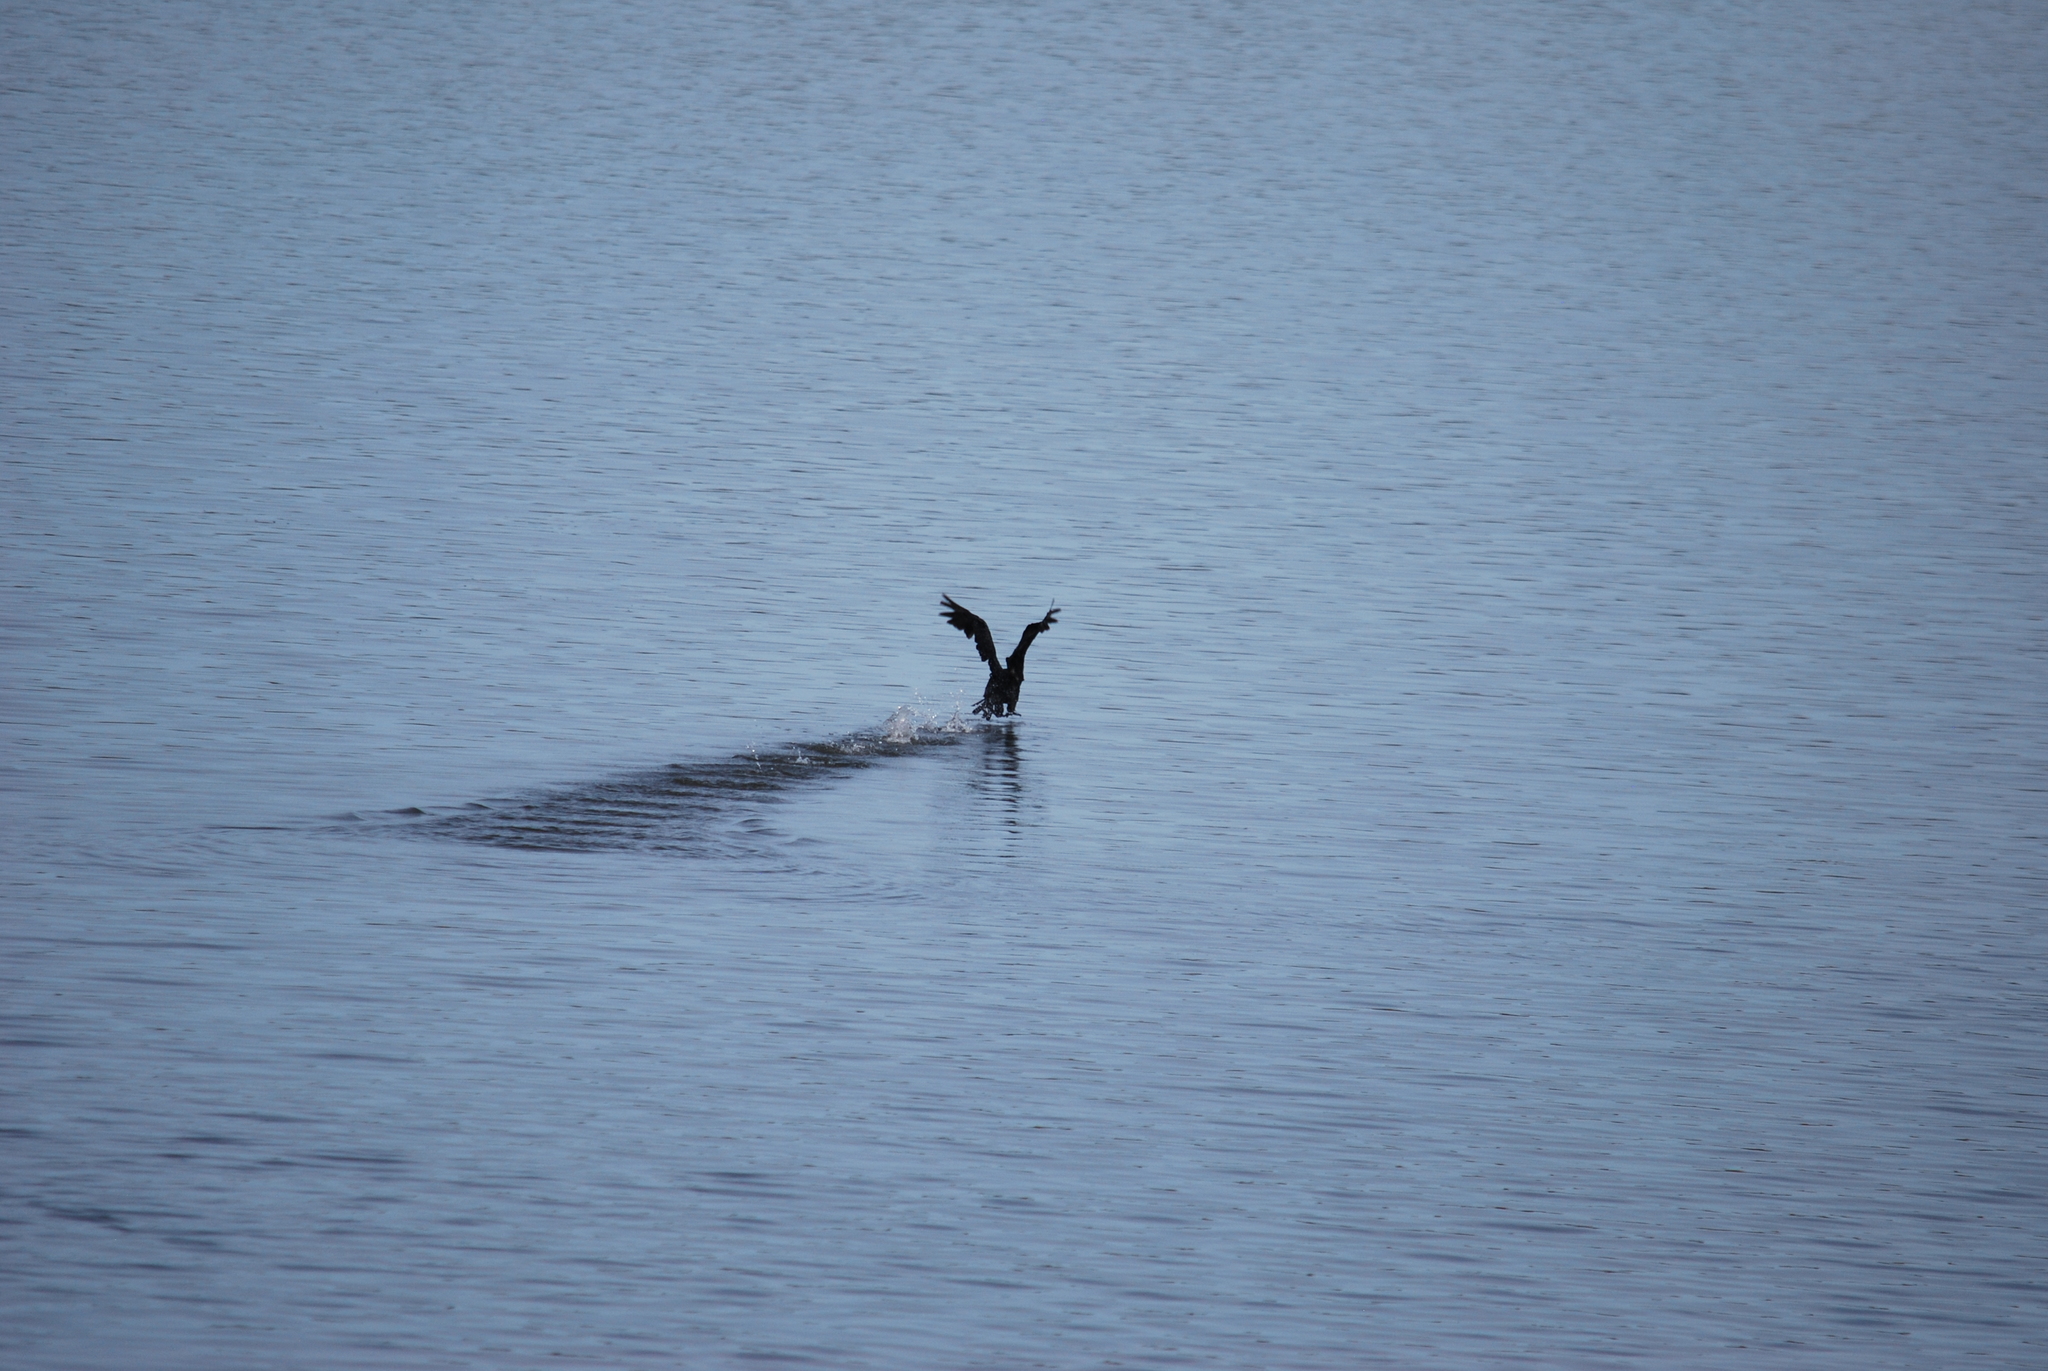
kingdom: Animalia
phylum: Chordata
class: Aves
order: Suliformes
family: Phalacrocoracidae
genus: Phalacrocorax
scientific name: Phalacrocorax auritus
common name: Double-crested cormorant
